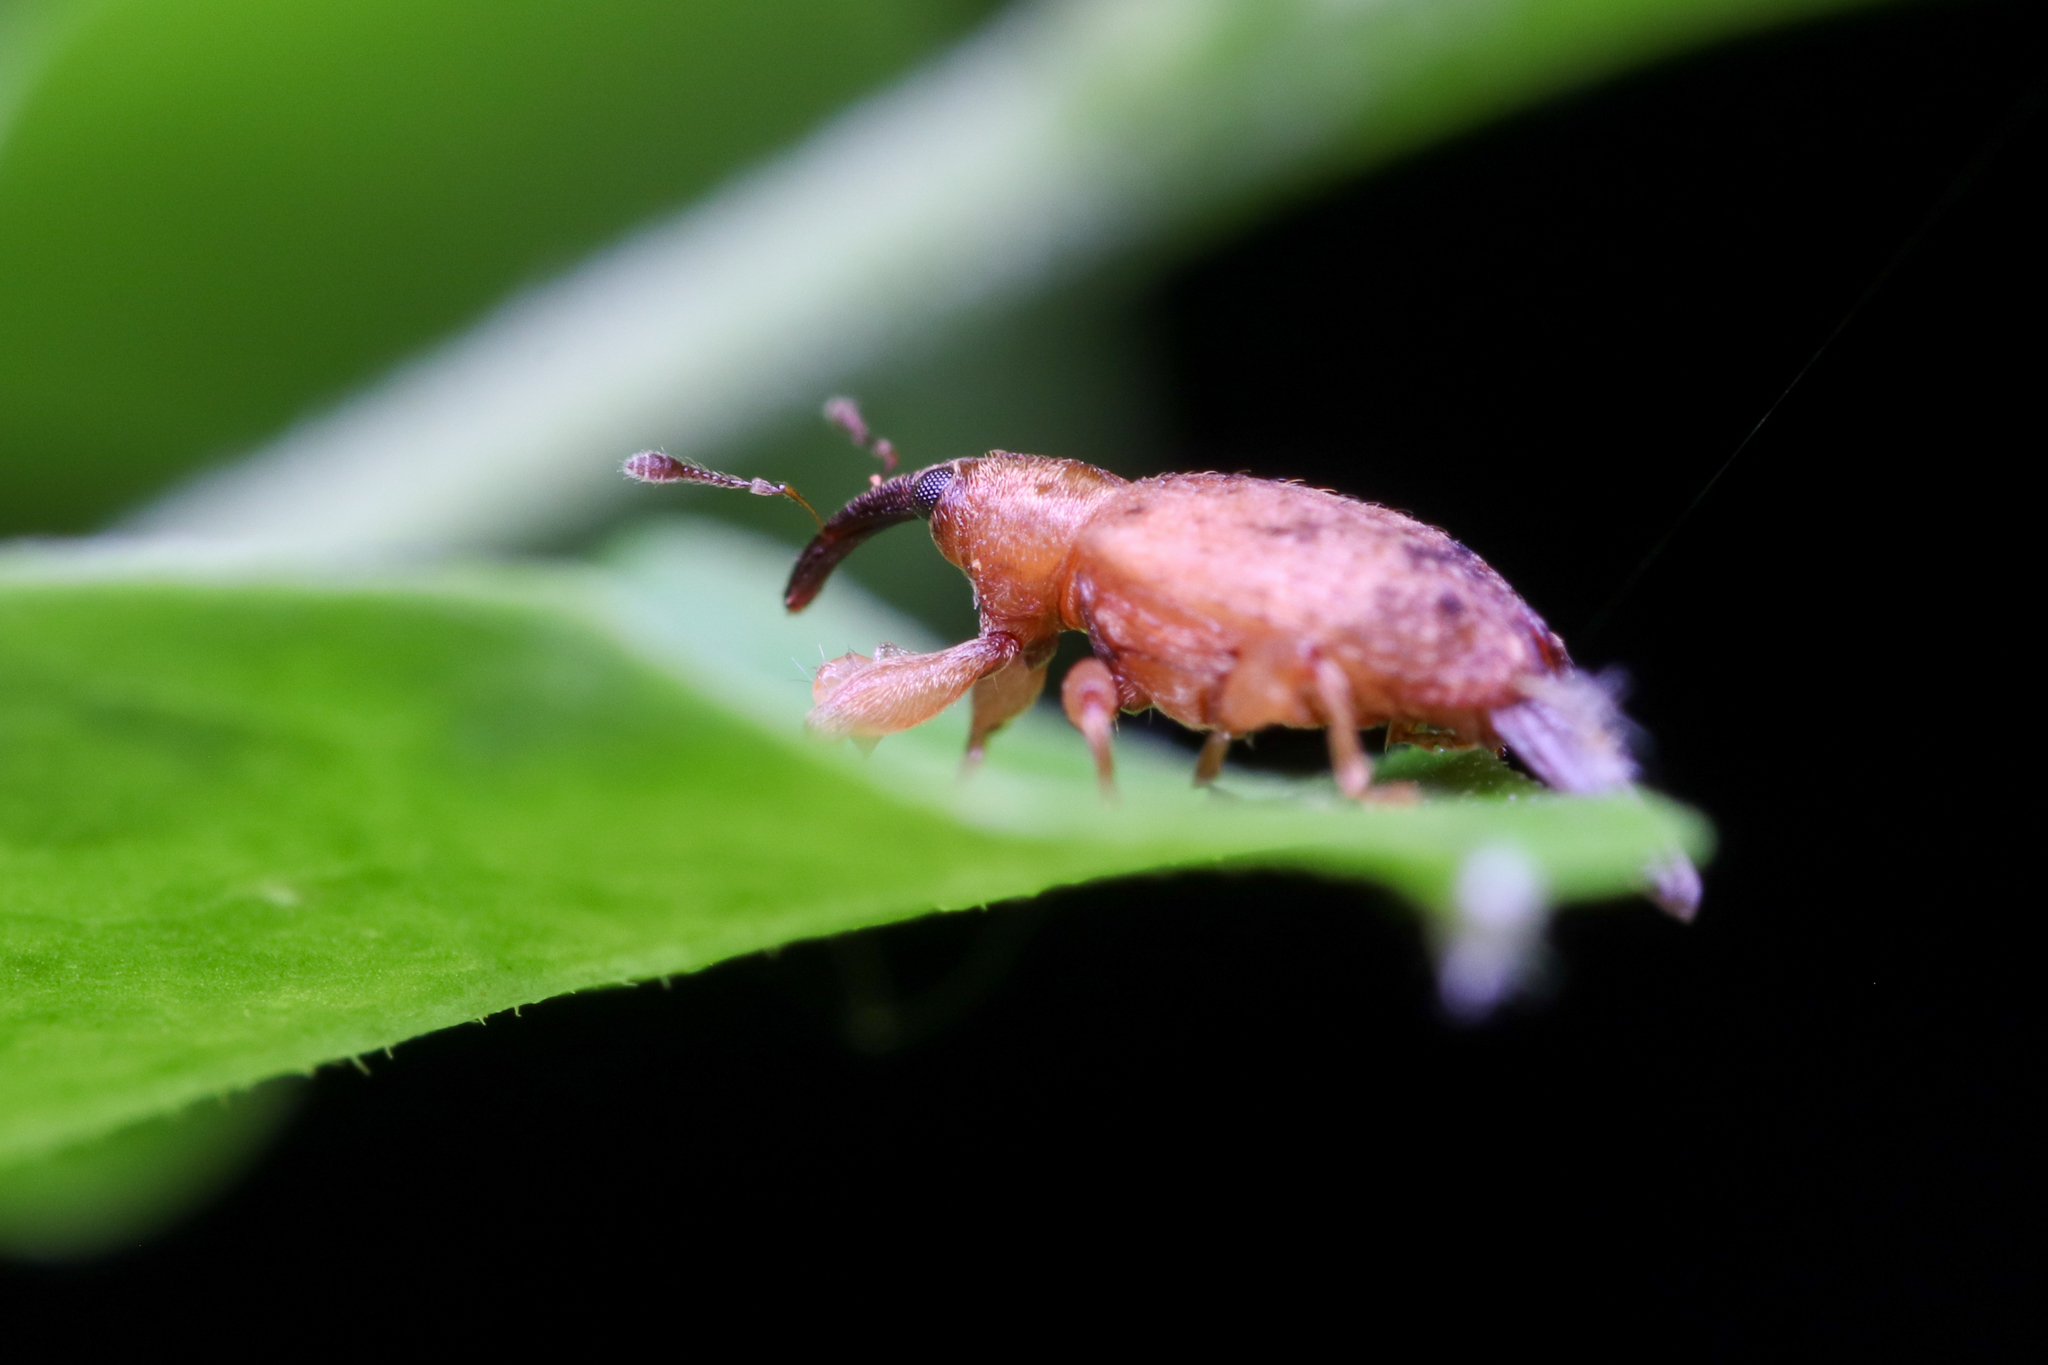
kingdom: Animalia
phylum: Arthropoda
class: Insecta
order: Coleoptera
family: Curculionidae
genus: Ochyromera
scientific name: Ochyromera ligustri
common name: Weevil
